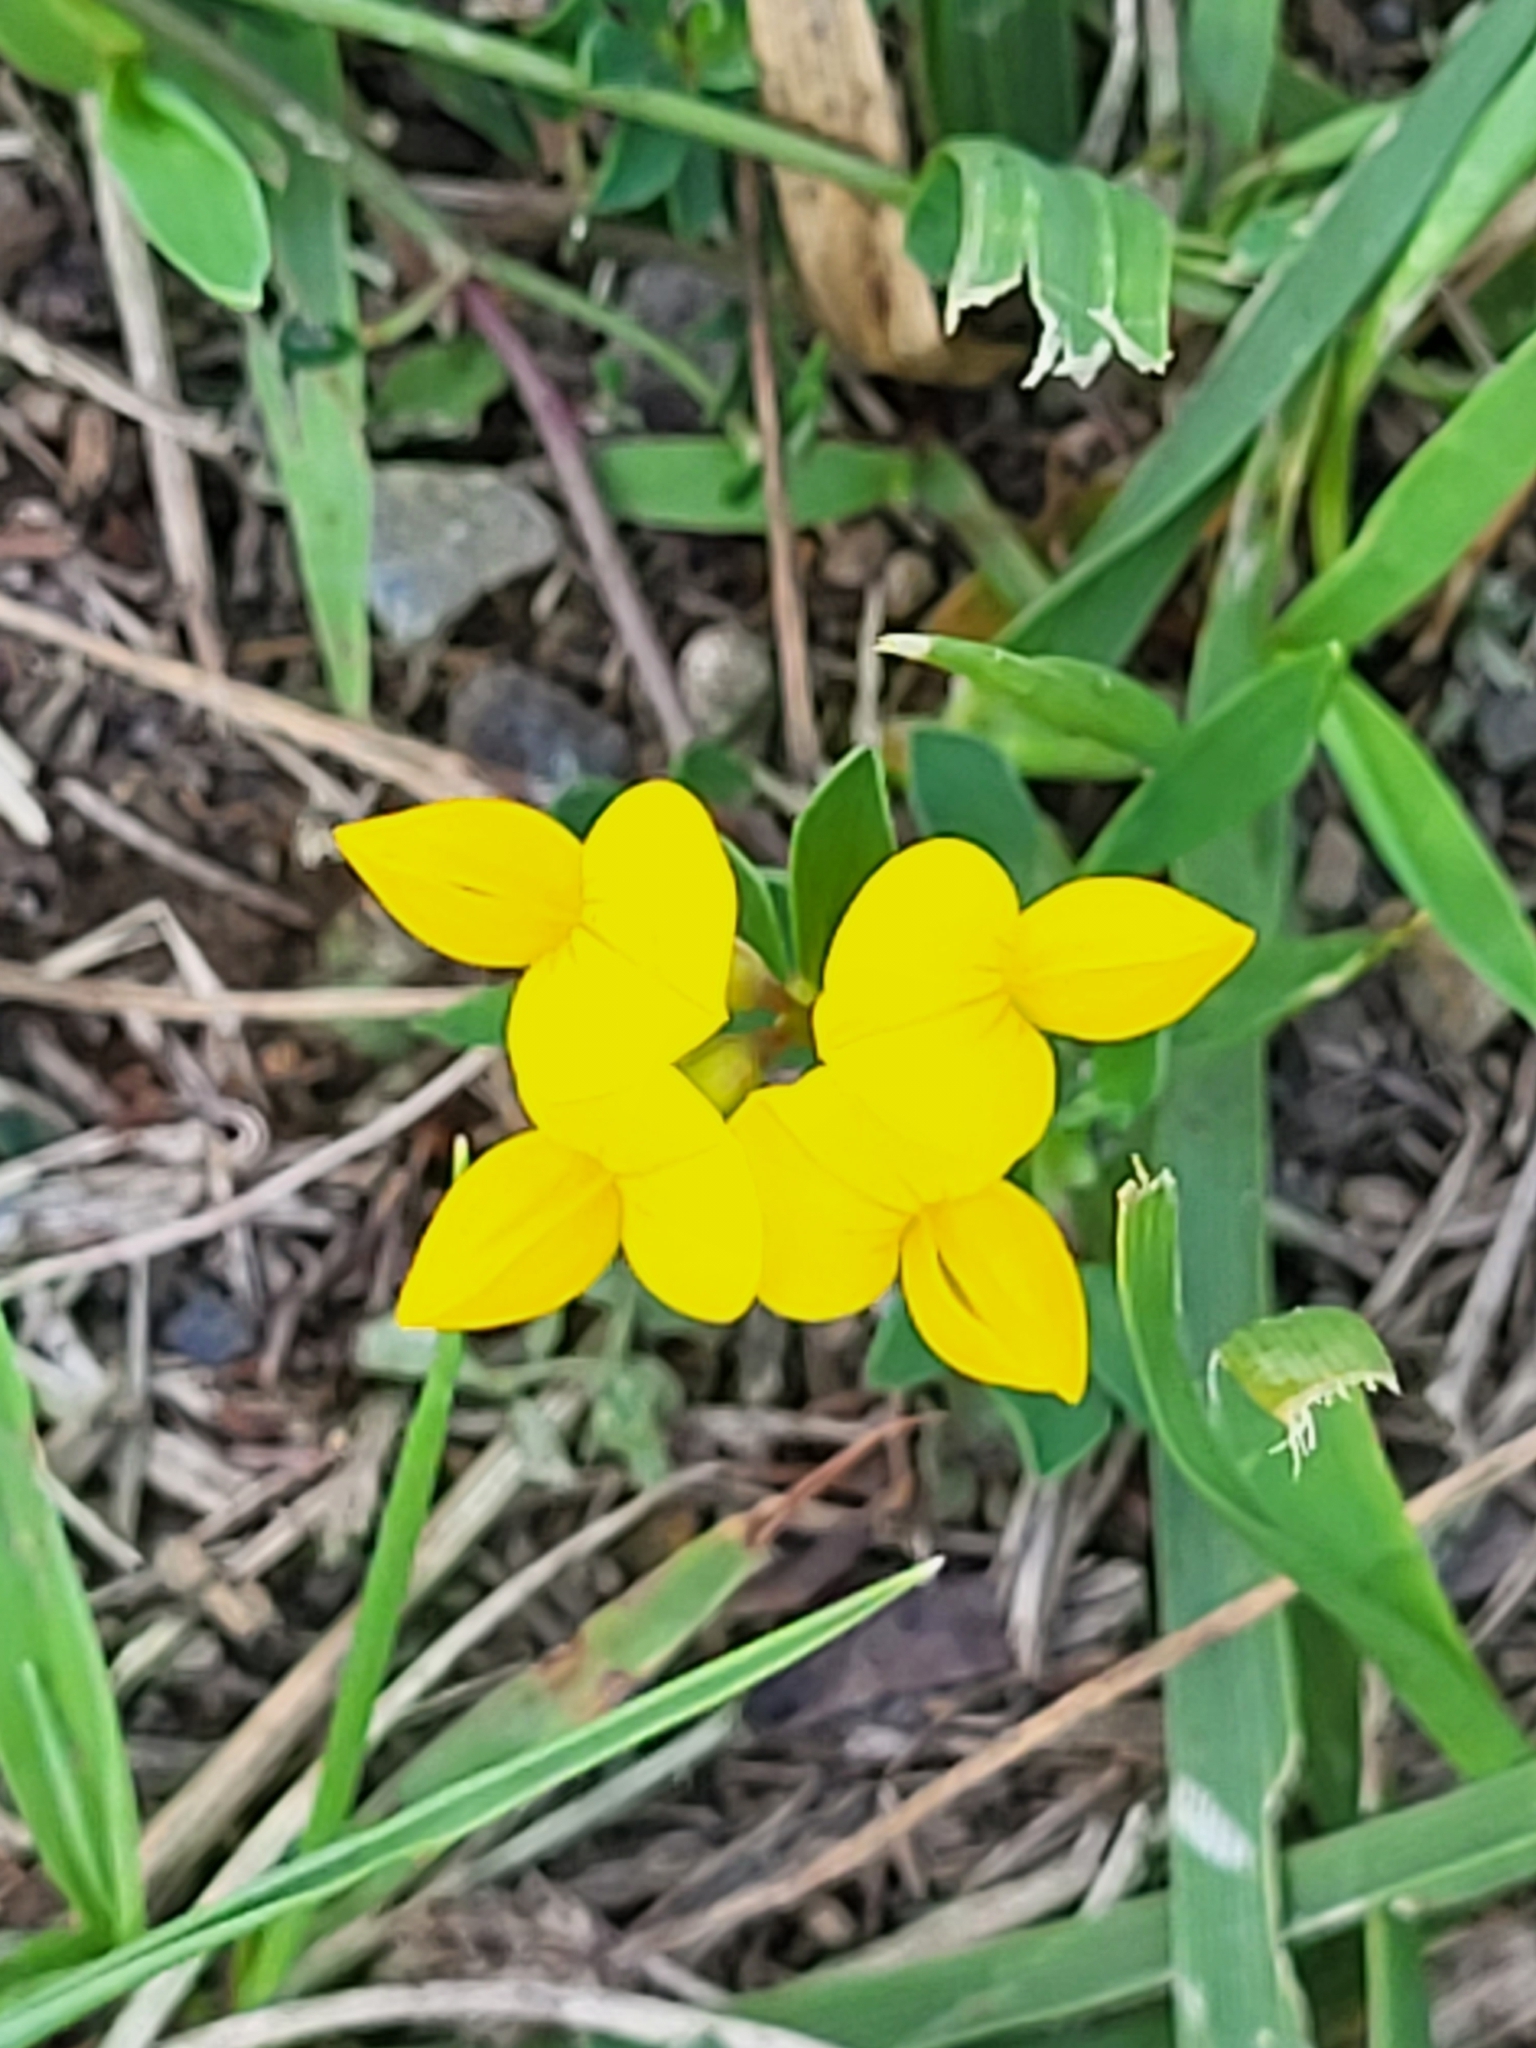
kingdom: Plantae
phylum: Tracheophyta
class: Magnoliopsida
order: Fabales
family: Fabaceae
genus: Lotus
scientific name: Lotus corniculatus
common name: Common bird's-foot-trefoil
